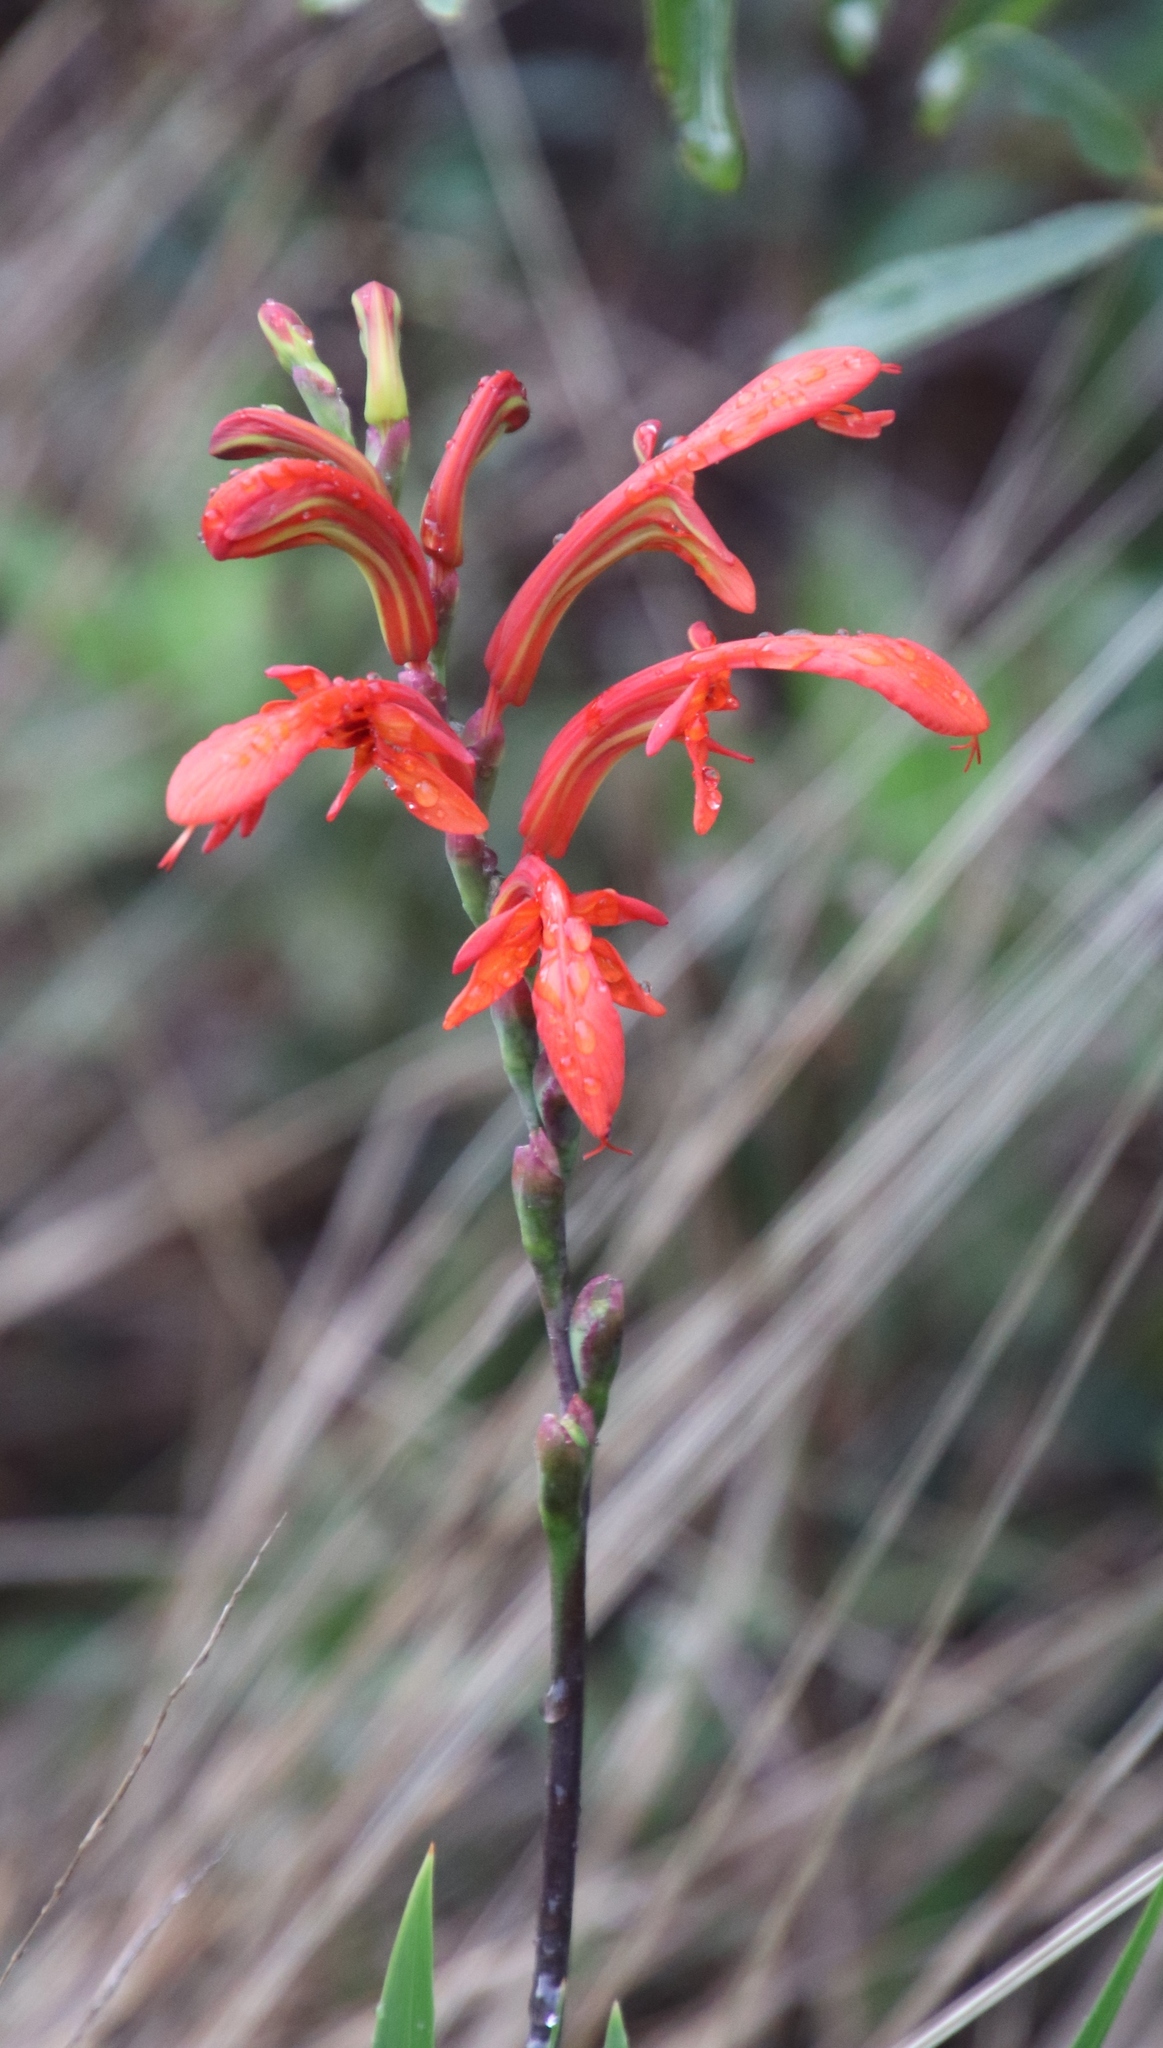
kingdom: Plantae
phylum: Tracheophyta
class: Liliopsida
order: Asparagales
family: Iridaceae
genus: Chasmanthe
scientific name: Chasmanthe aethiopica
